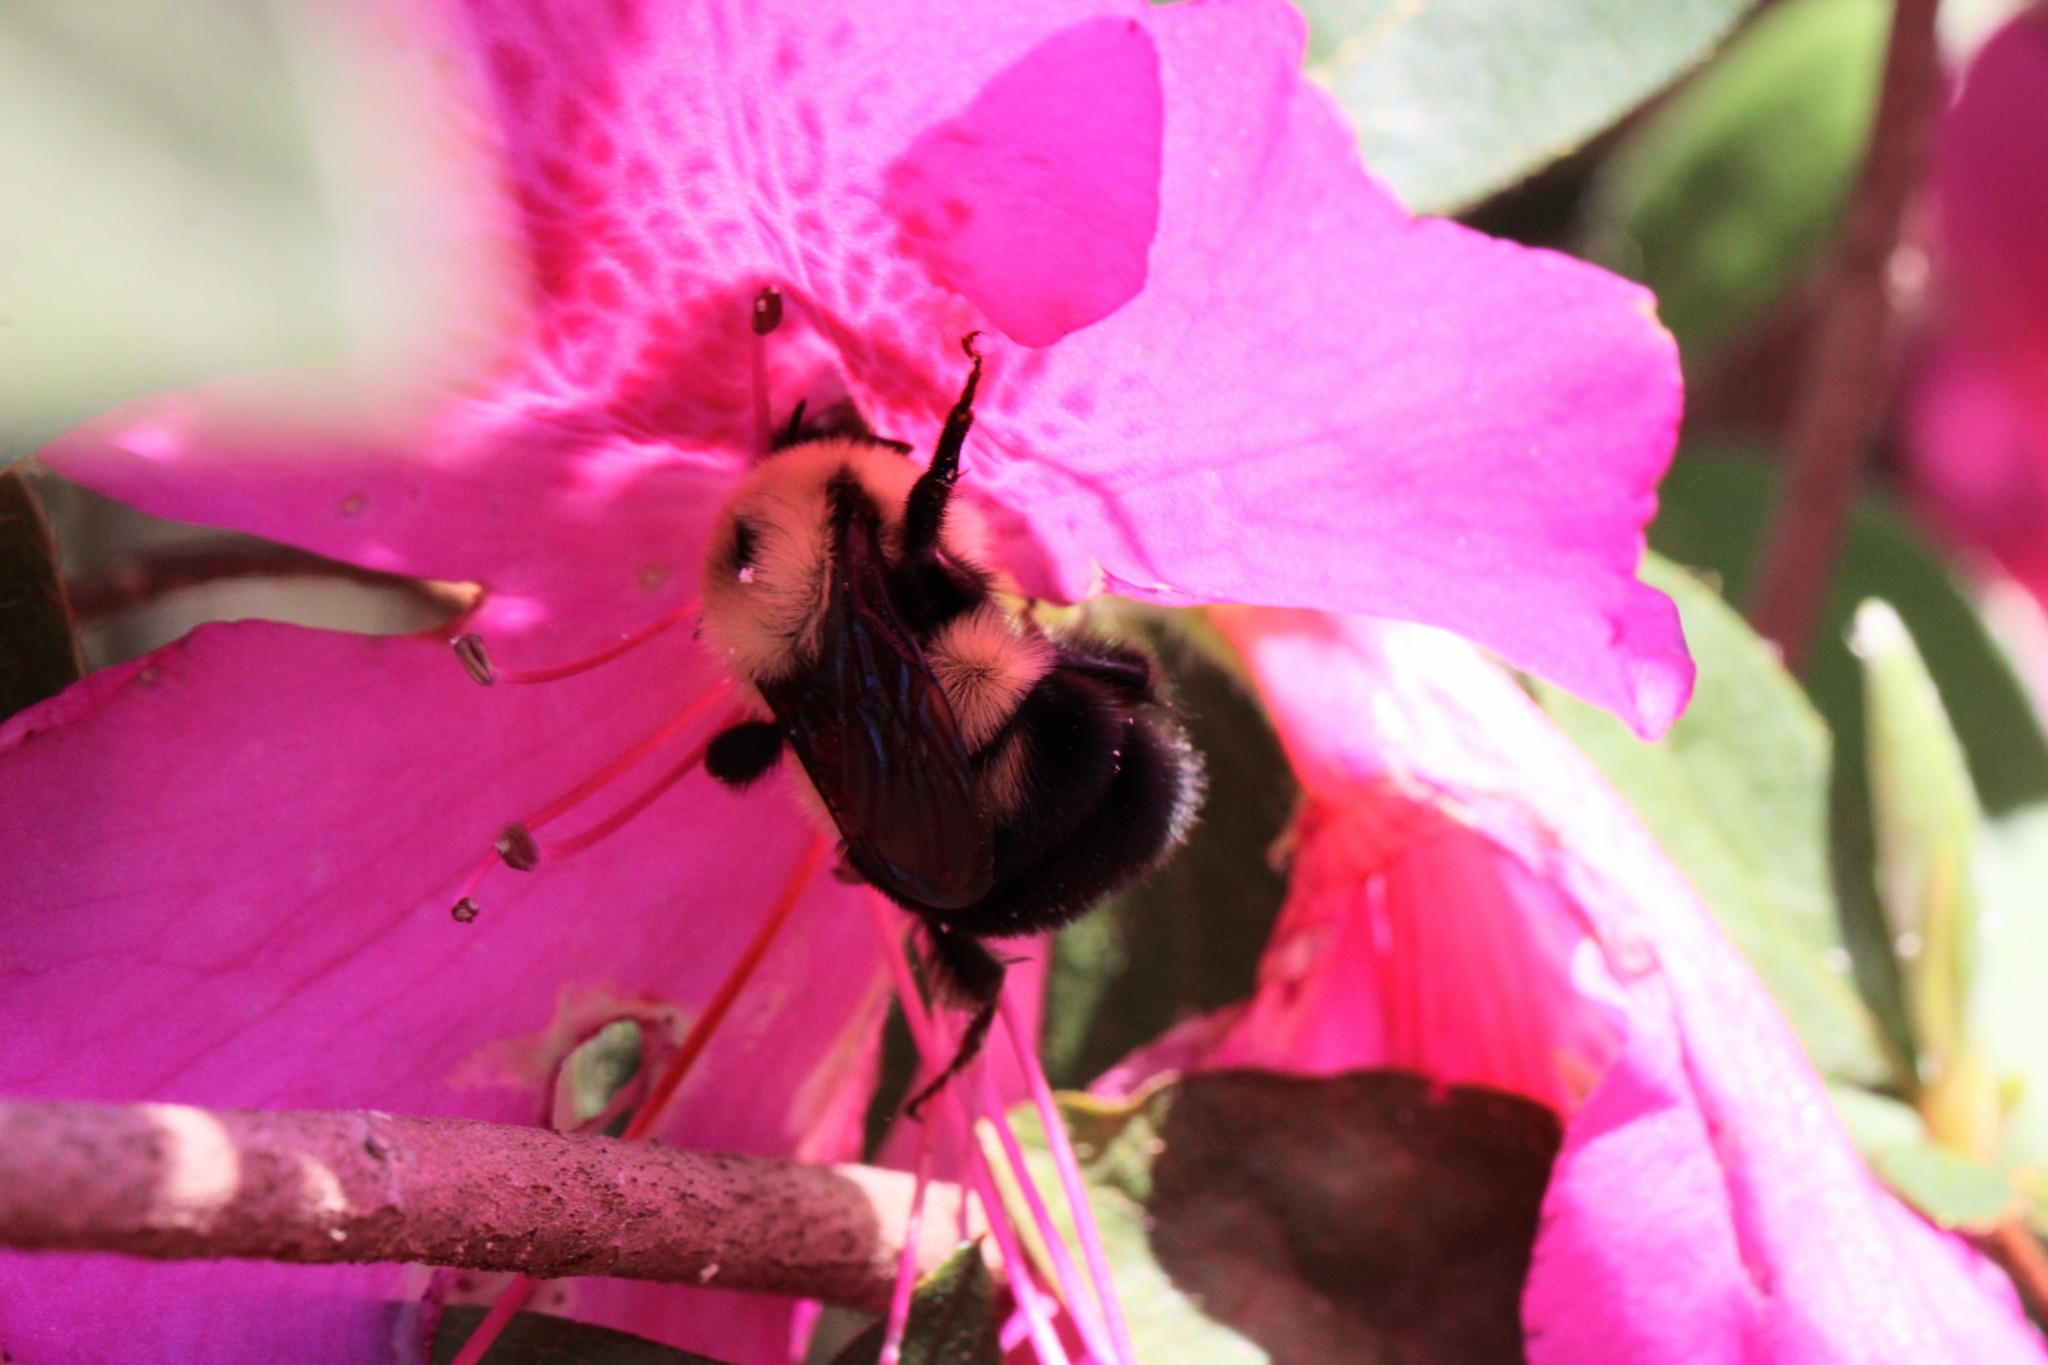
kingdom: Animalia
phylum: Arthropoda
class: Insecta
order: Hymenoptera
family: Apidae
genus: Bombus
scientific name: Bombus bimaculatus
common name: Two-spotted bumble bee
